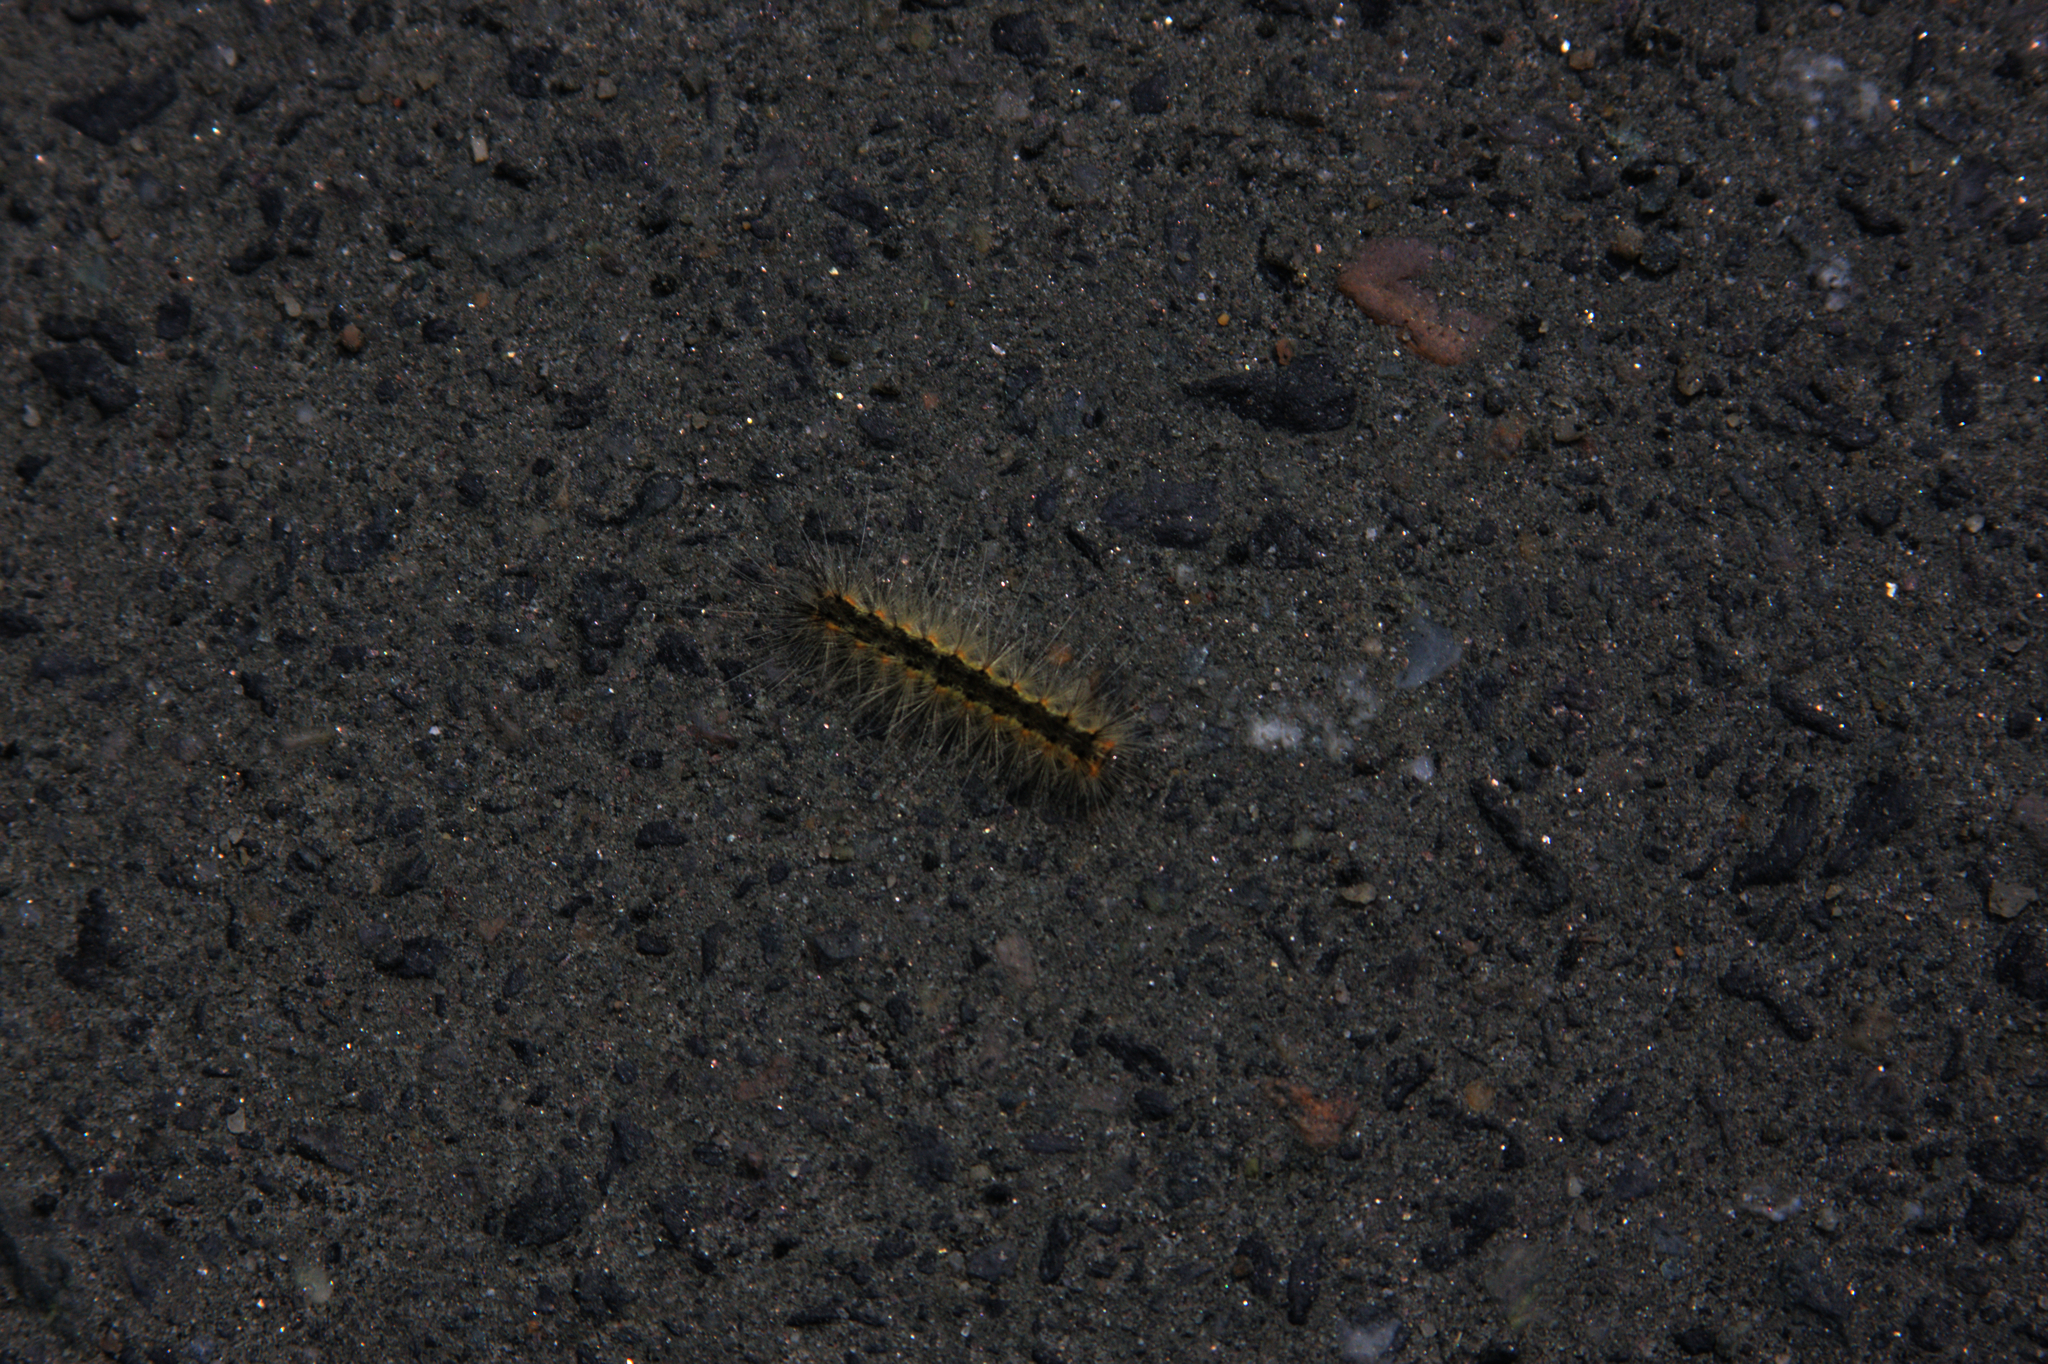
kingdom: Animalia
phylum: Arthropoda
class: Insecta
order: Lepidoptera
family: Erebidae
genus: Hyphantria
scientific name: Hyphantria cunea
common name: American white moth
